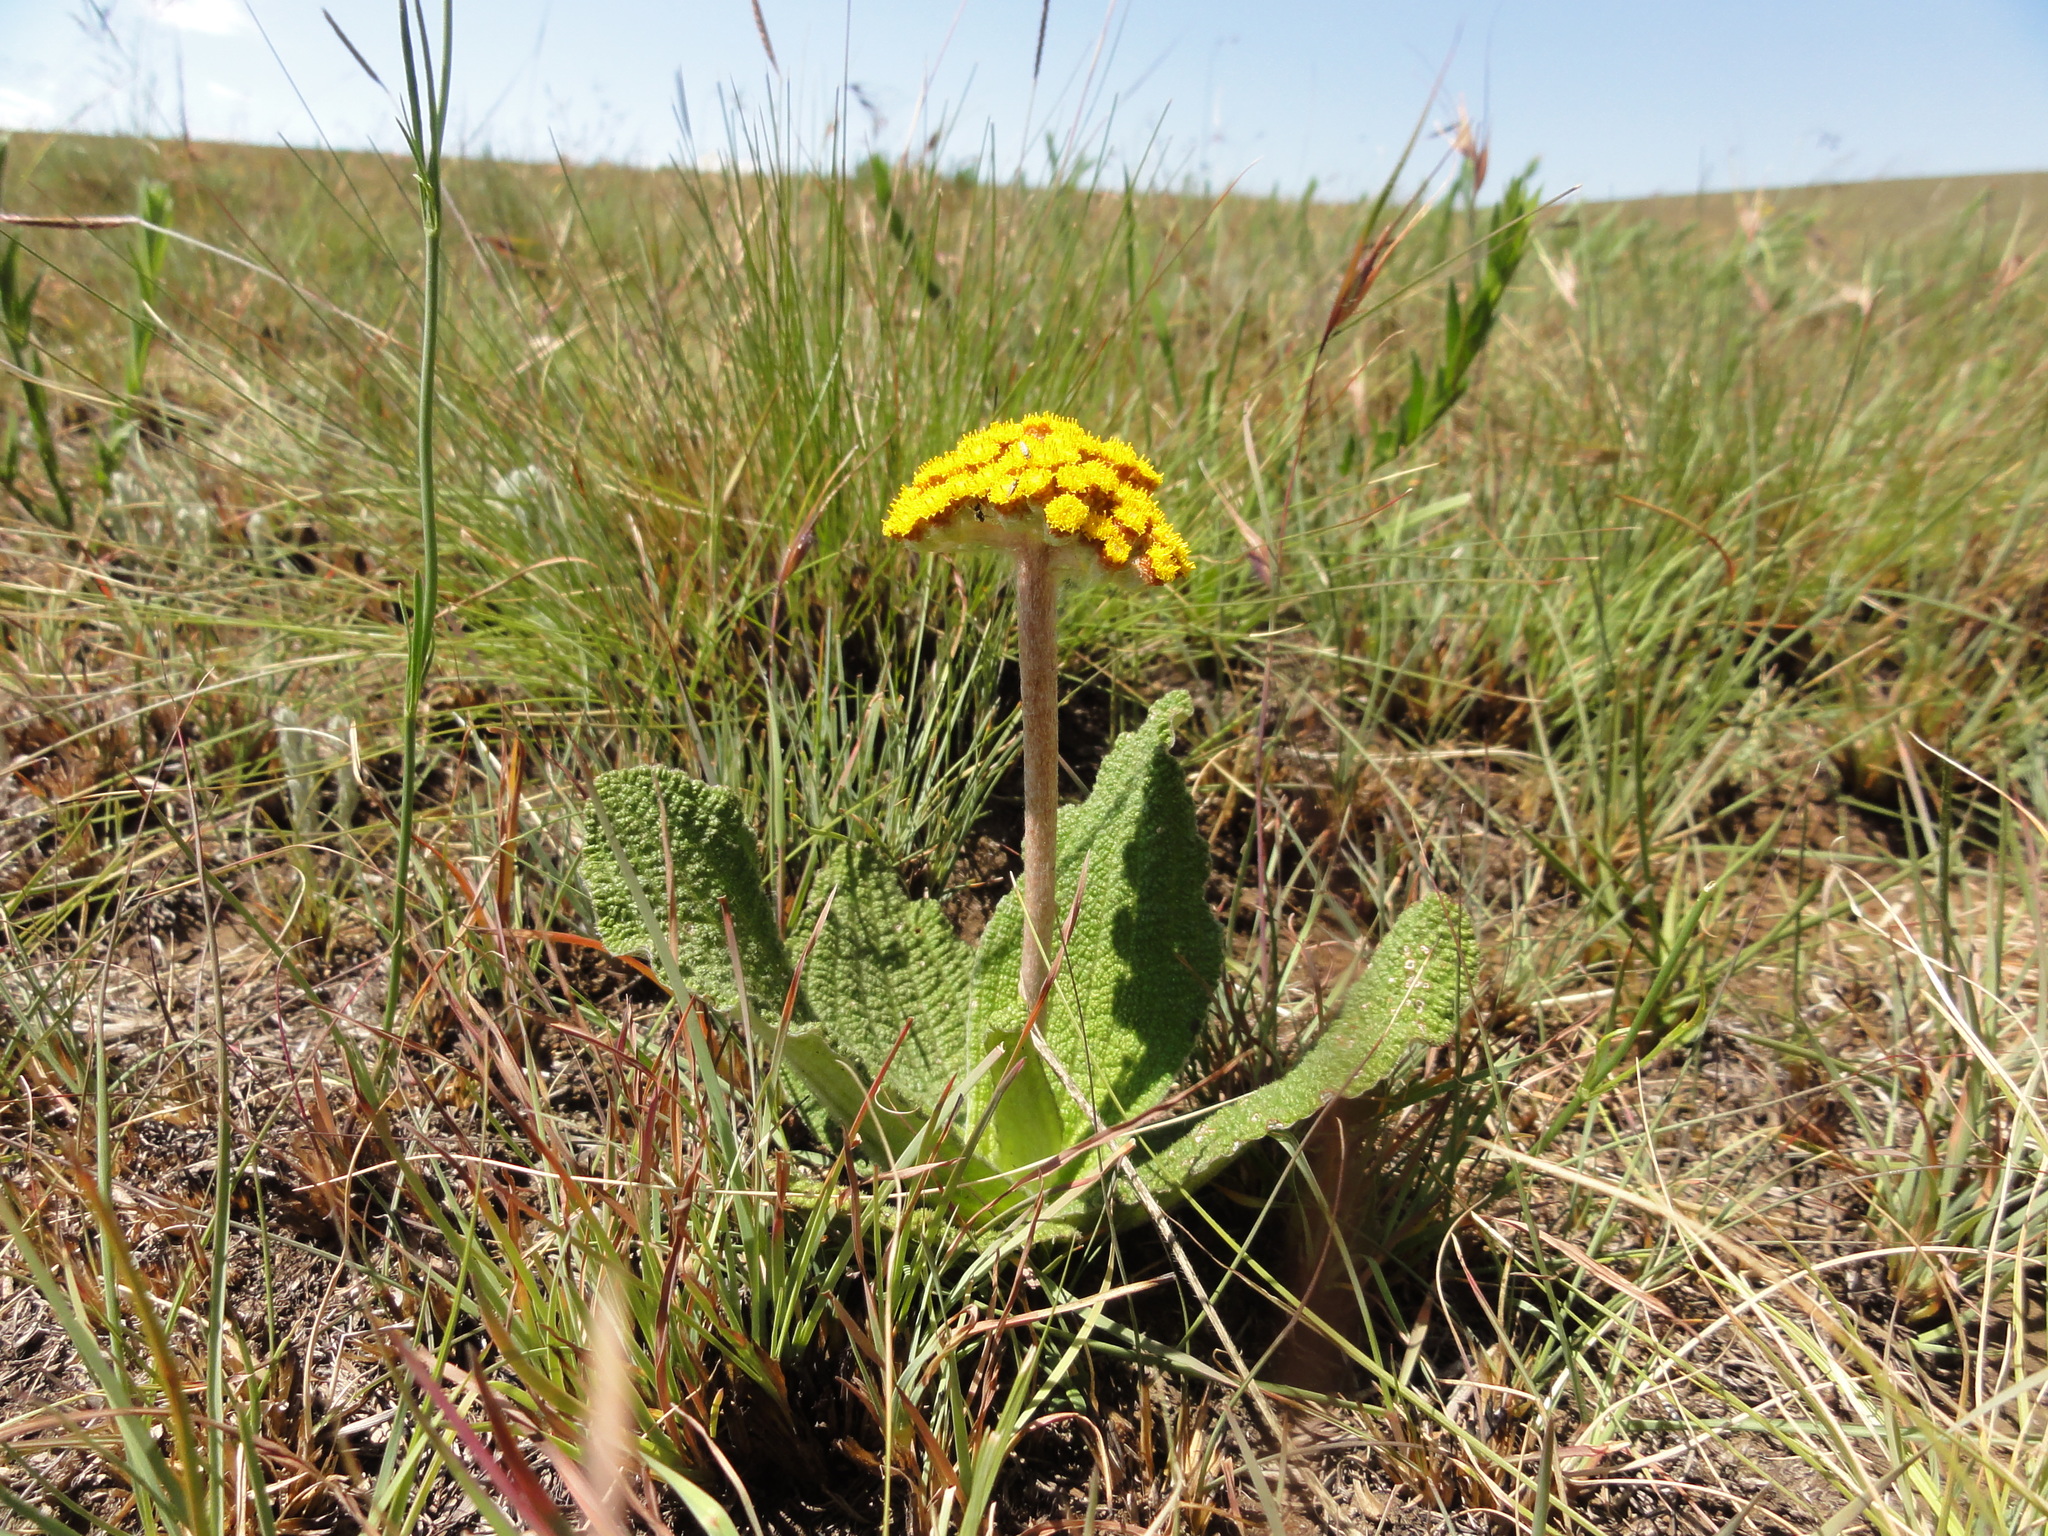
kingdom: Plantae
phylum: Tracheophyta
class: Magnoliopsida
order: Asterales
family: Asteraceae
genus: Helichrysum
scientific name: Helichrysum nudifolium
